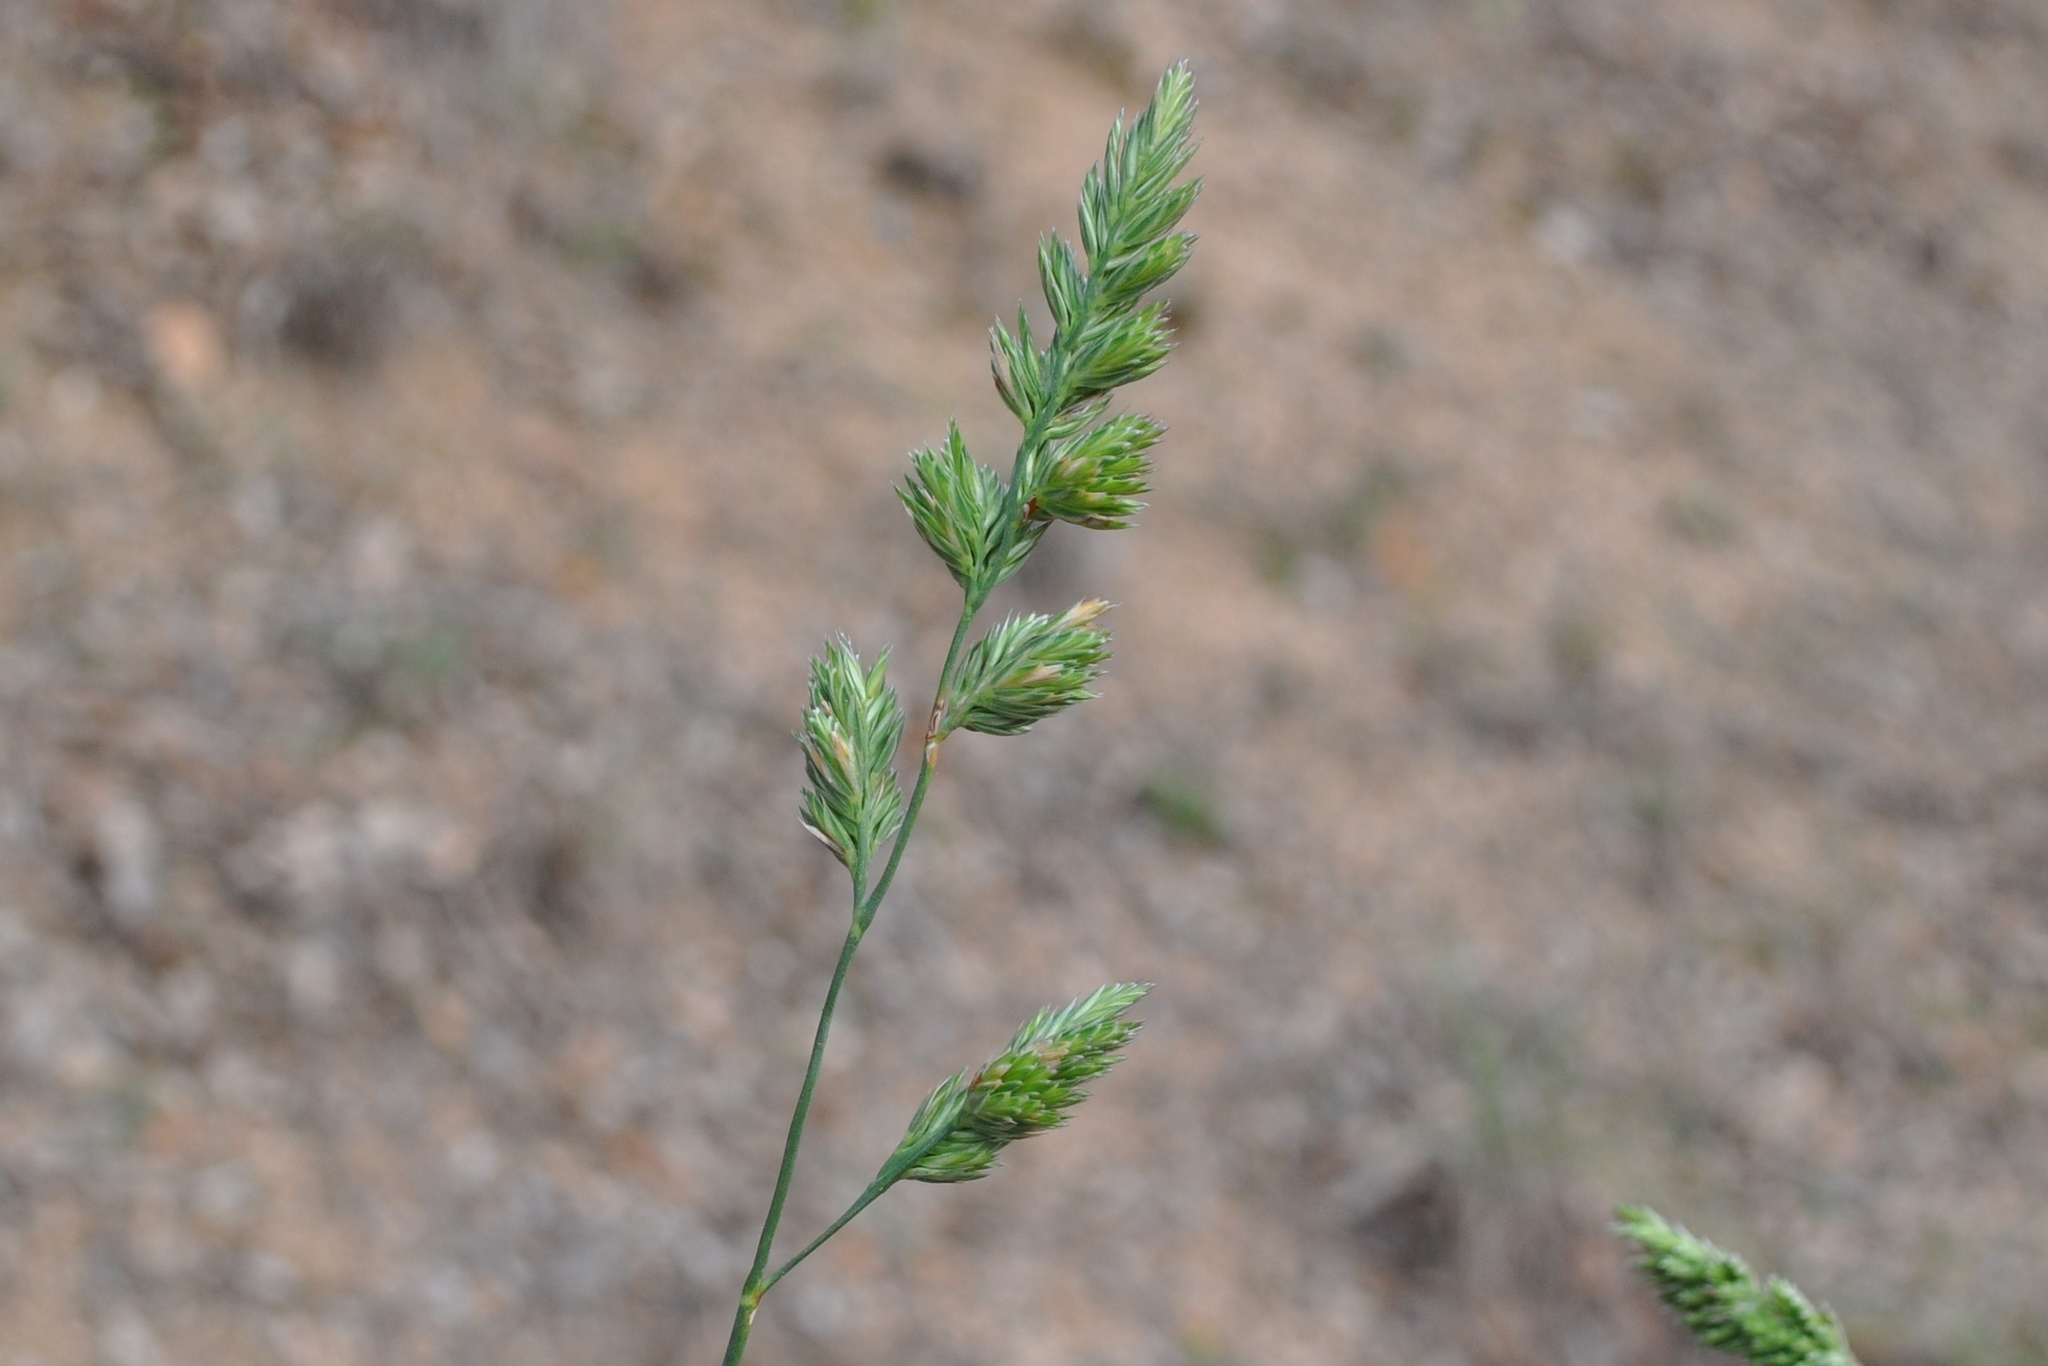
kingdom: Plantae
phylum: Tracheophyta
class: Liliopsida
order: Poales
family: Poaceae
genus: Dactylis
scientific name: Dactylis glomerata
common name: Orchardgrass
